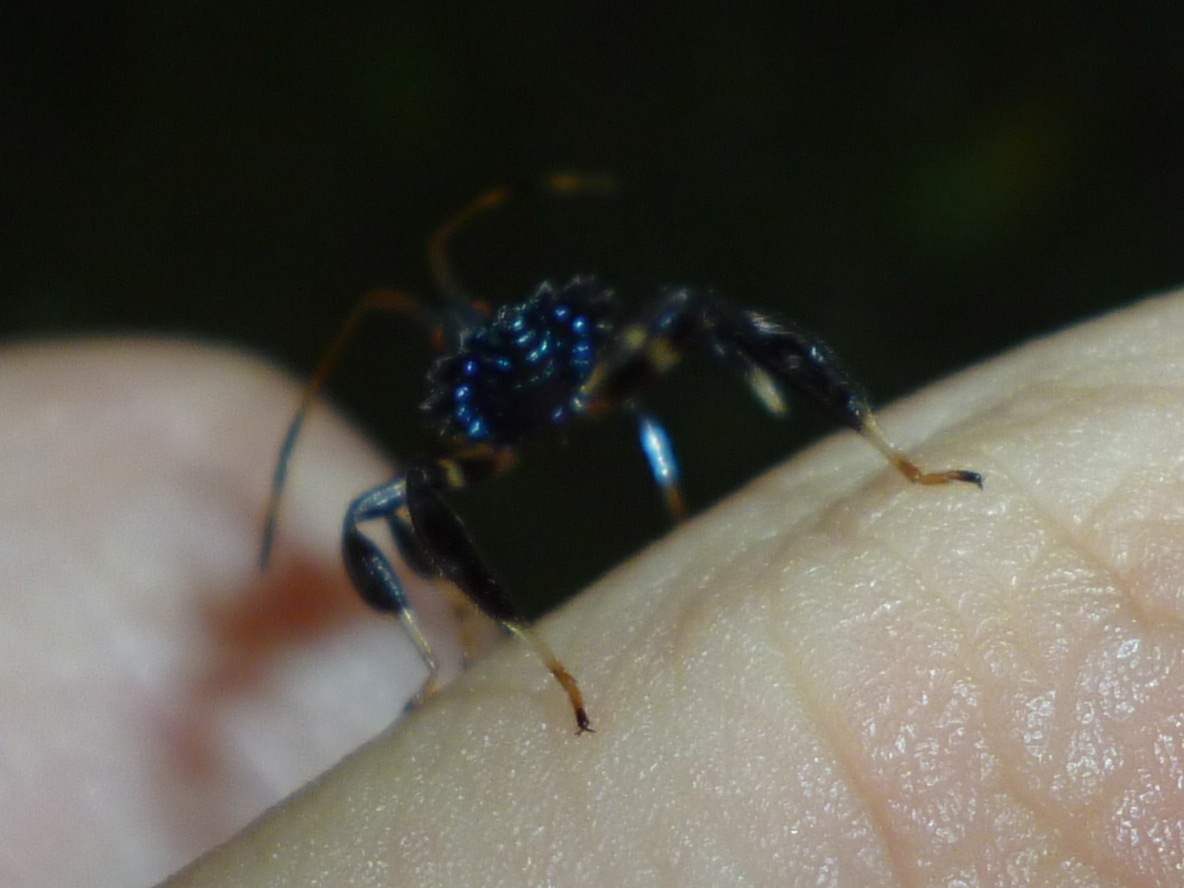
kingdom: Animalia
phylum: Arthropoda
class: Insecta
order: Hemiptera
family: Coreidae
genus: Acanthocephala
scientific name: Acanthocephala terminalis
